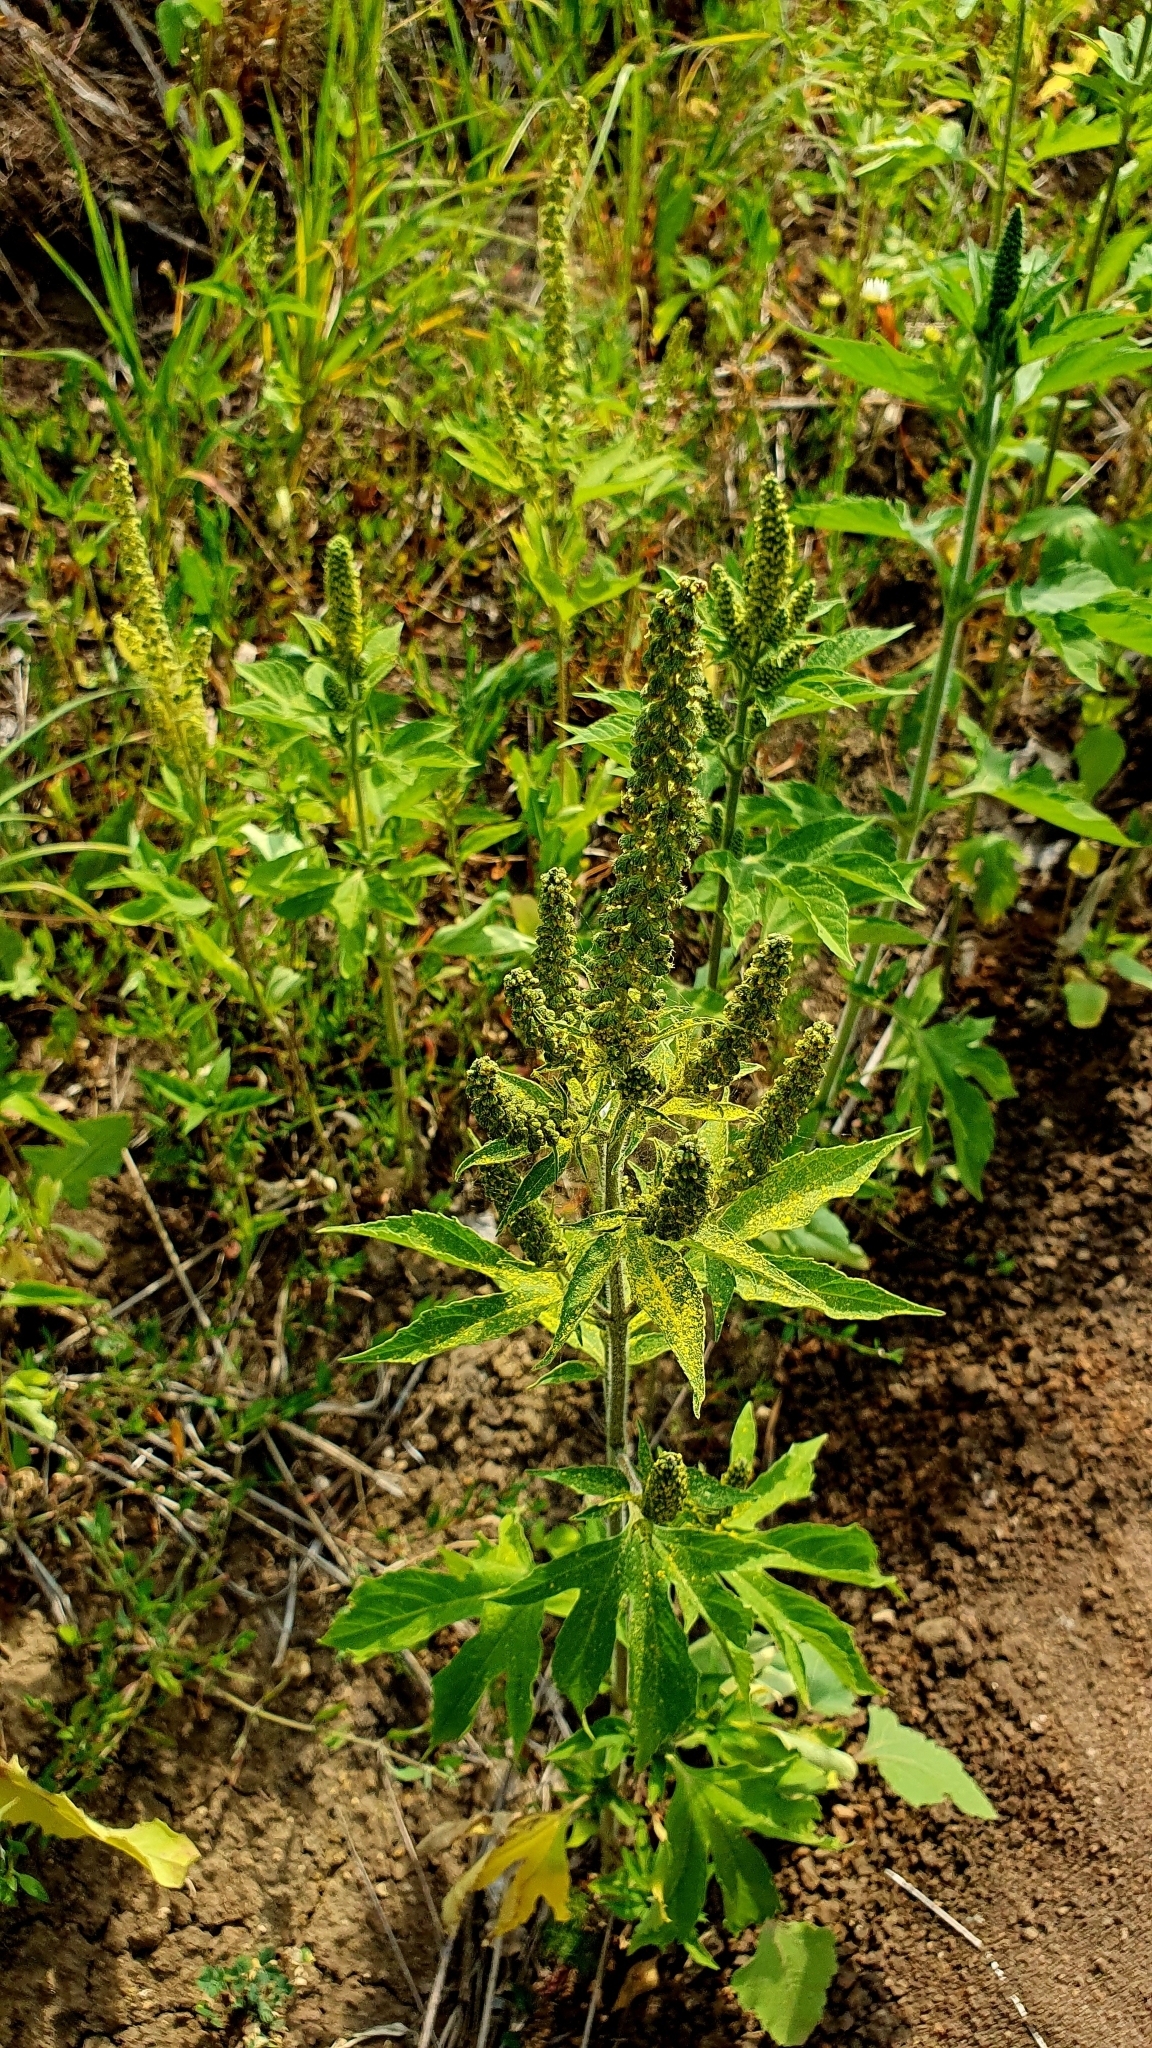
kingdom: Plantae
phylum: Tracheophyta
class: Magnoliopsida
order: Asterales
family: Asteraceae
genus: Ambrosia
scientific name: Ambrosia trifida
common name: Giant ragweed
